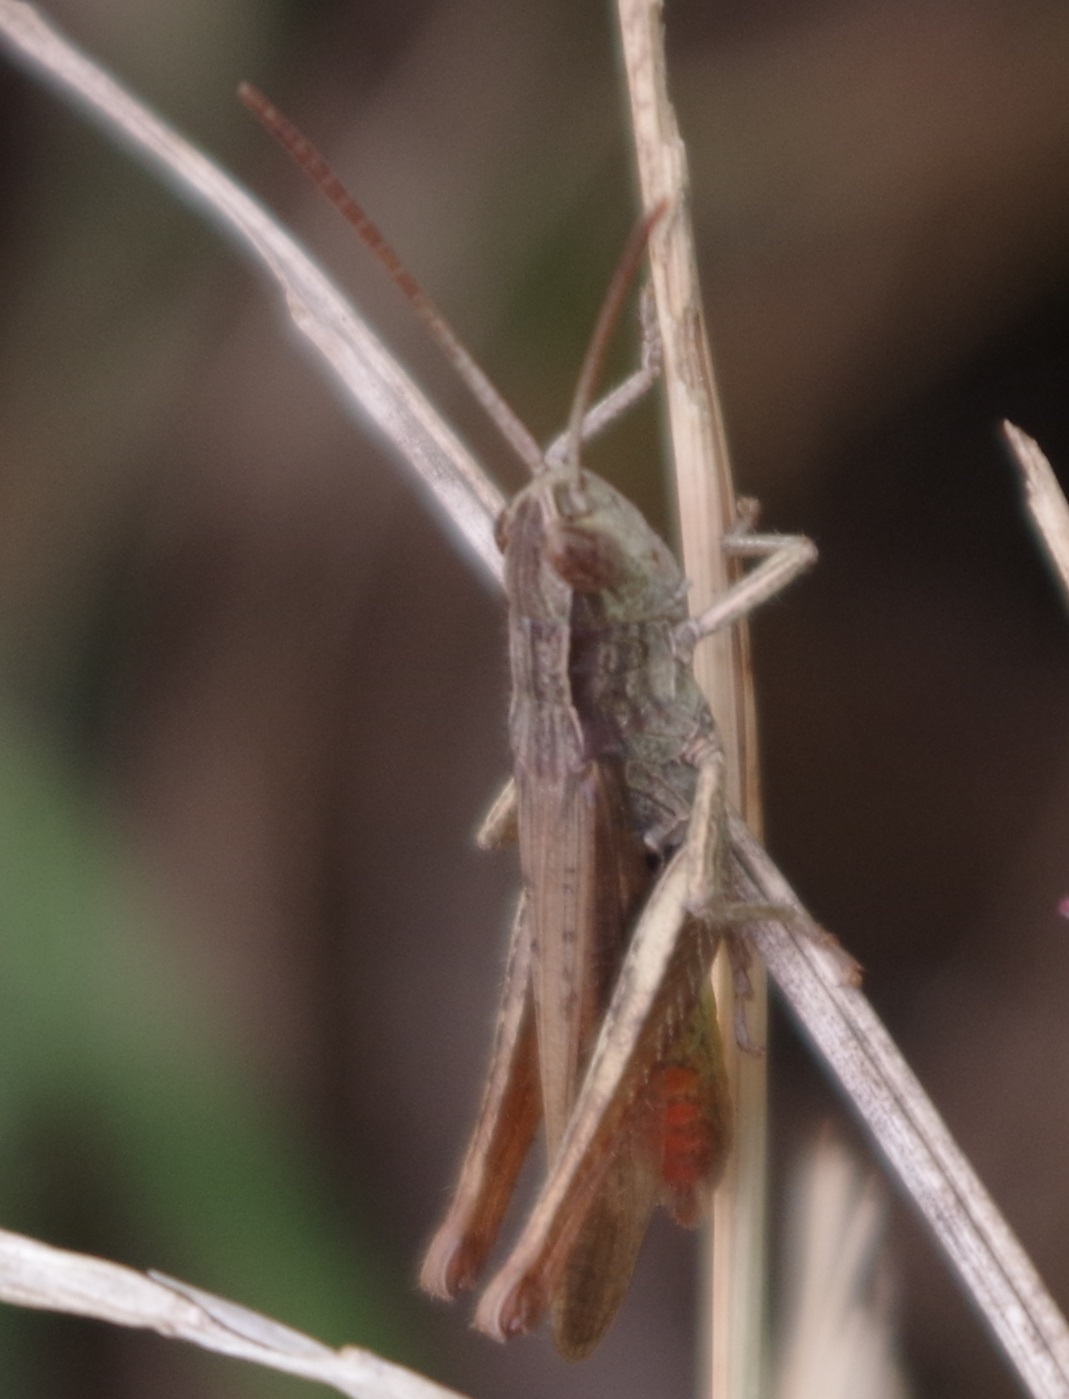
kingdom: Animalia
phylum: Arthropoda
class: Insecta
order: Orthoptera
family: Acrididae
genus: Chorthippus
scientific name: Chorthippus dorsatus
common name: Steppe grasshopper
